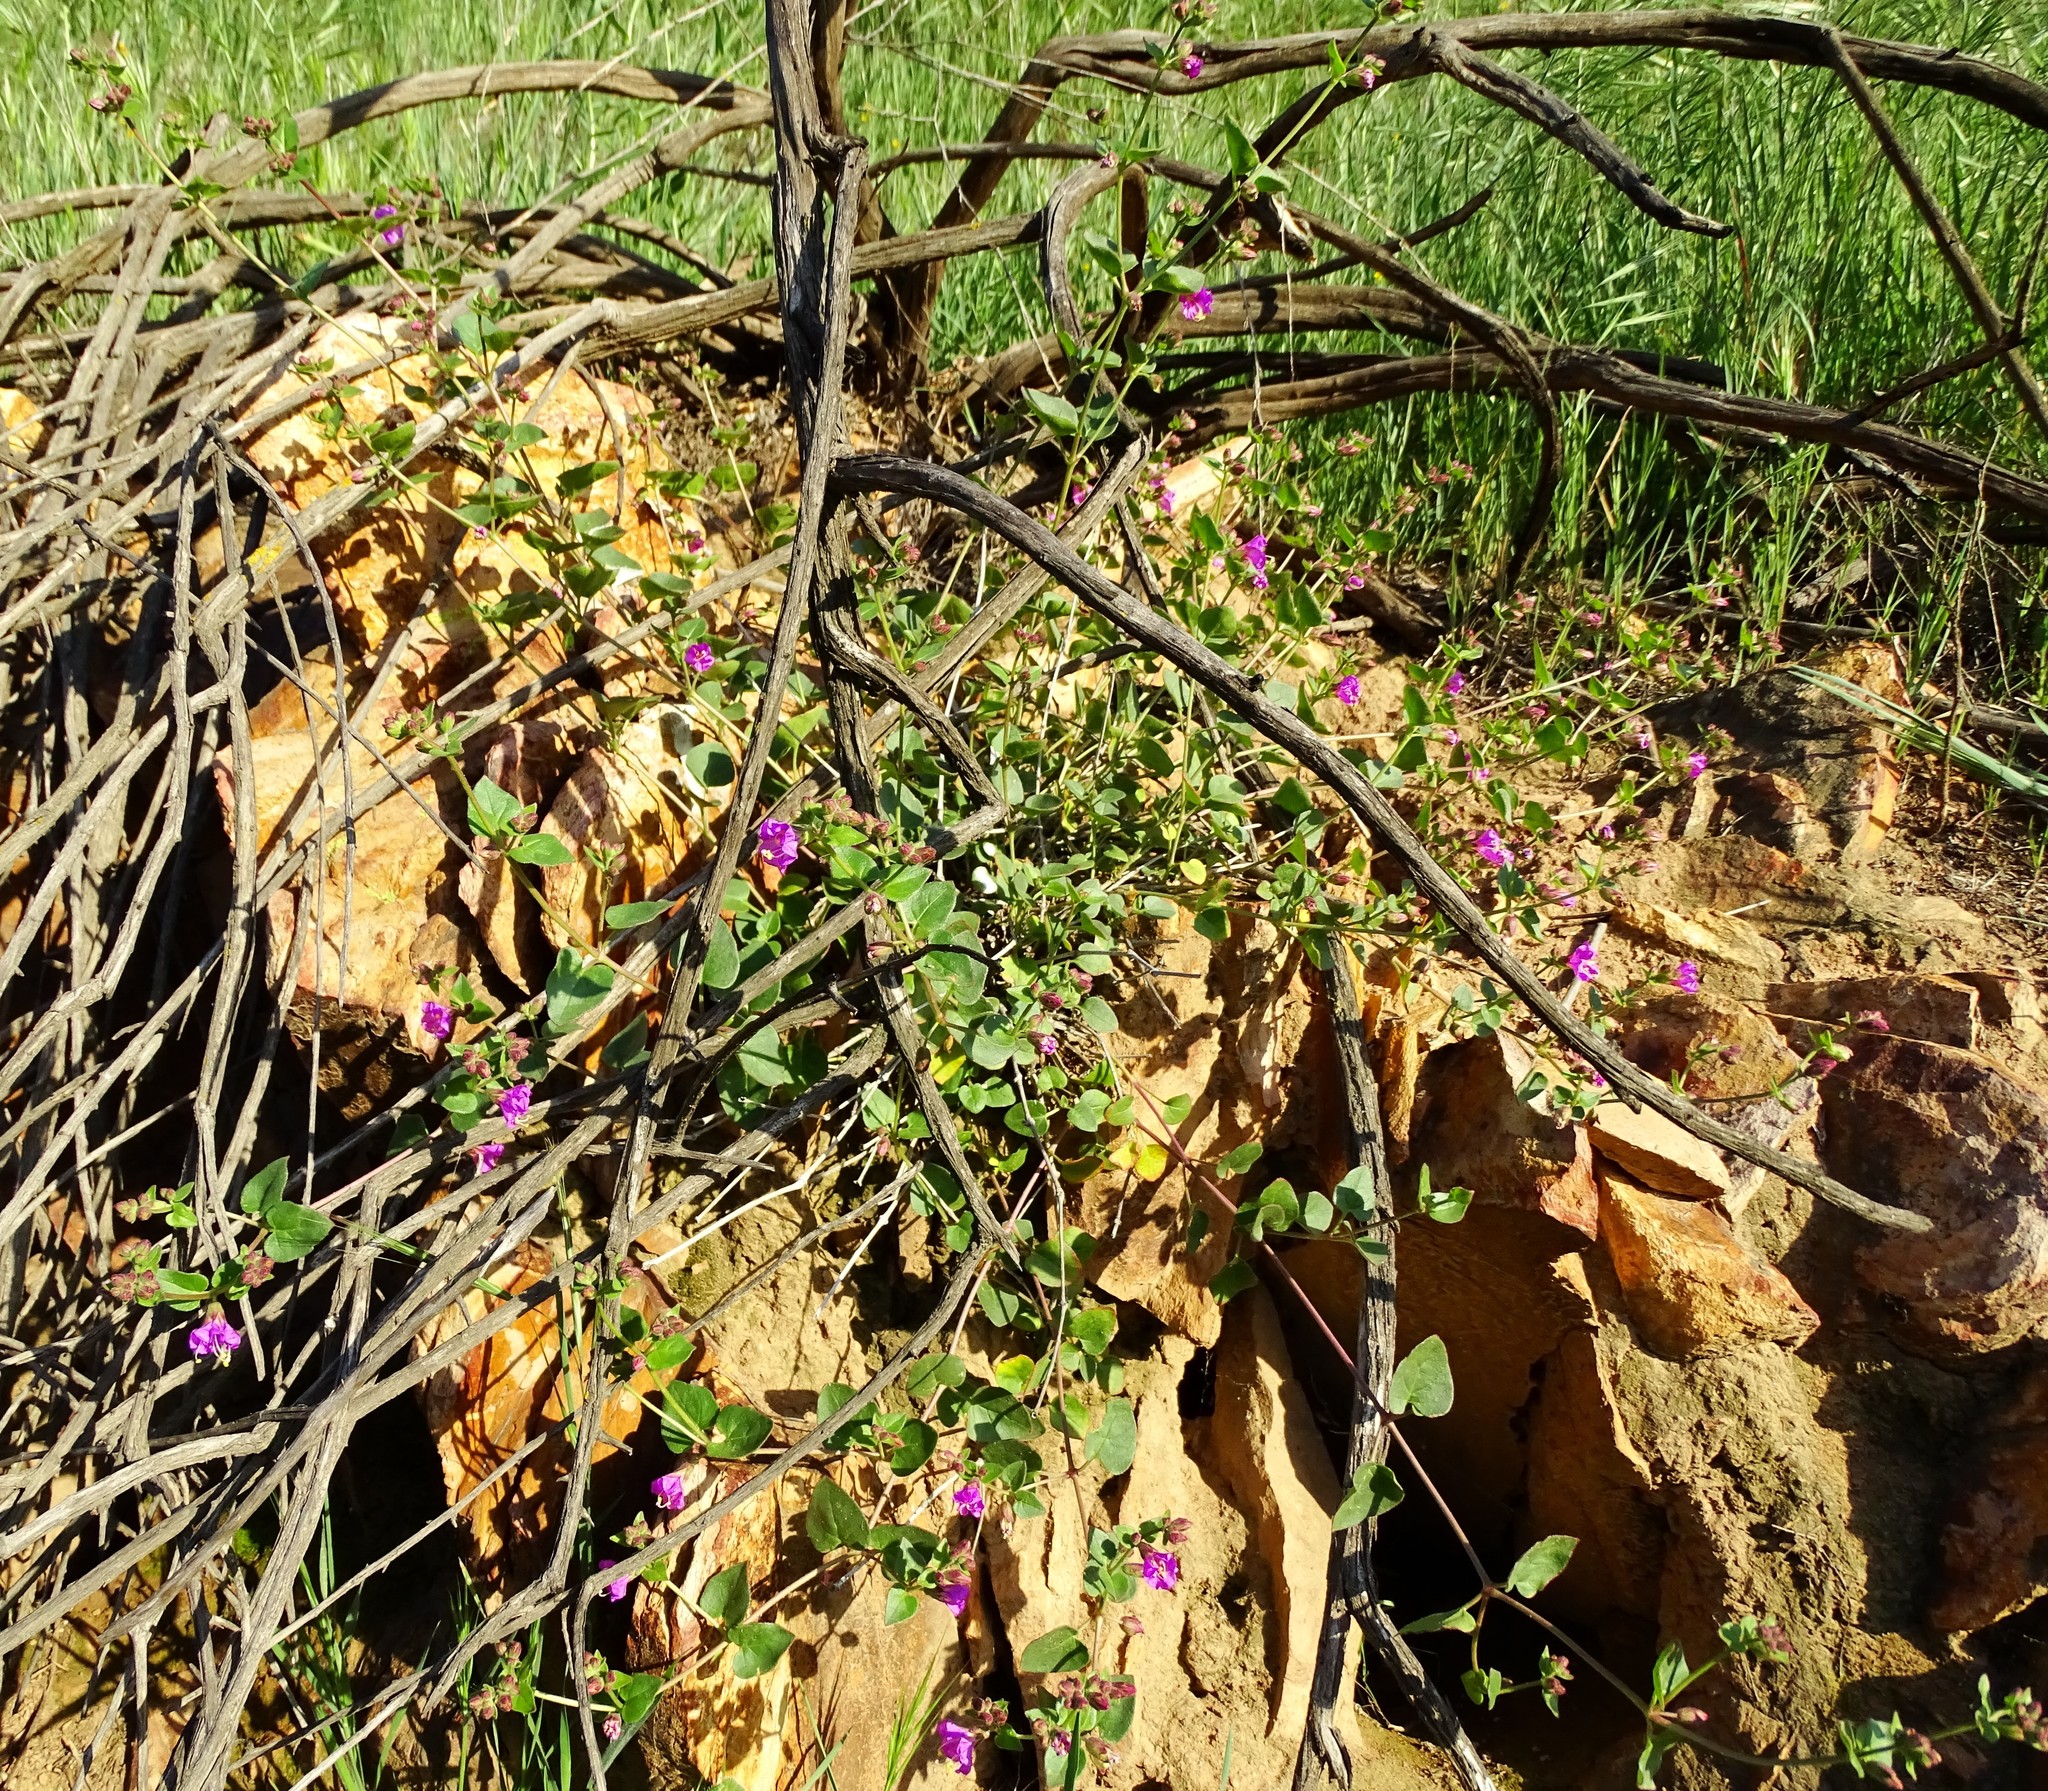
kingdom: Plantae
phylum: Tracheophyta
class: Magnoliopsida
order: Caryophyllales
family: Nyctaginaceae
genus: Mirabilis
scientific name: Mirabilis laevis
